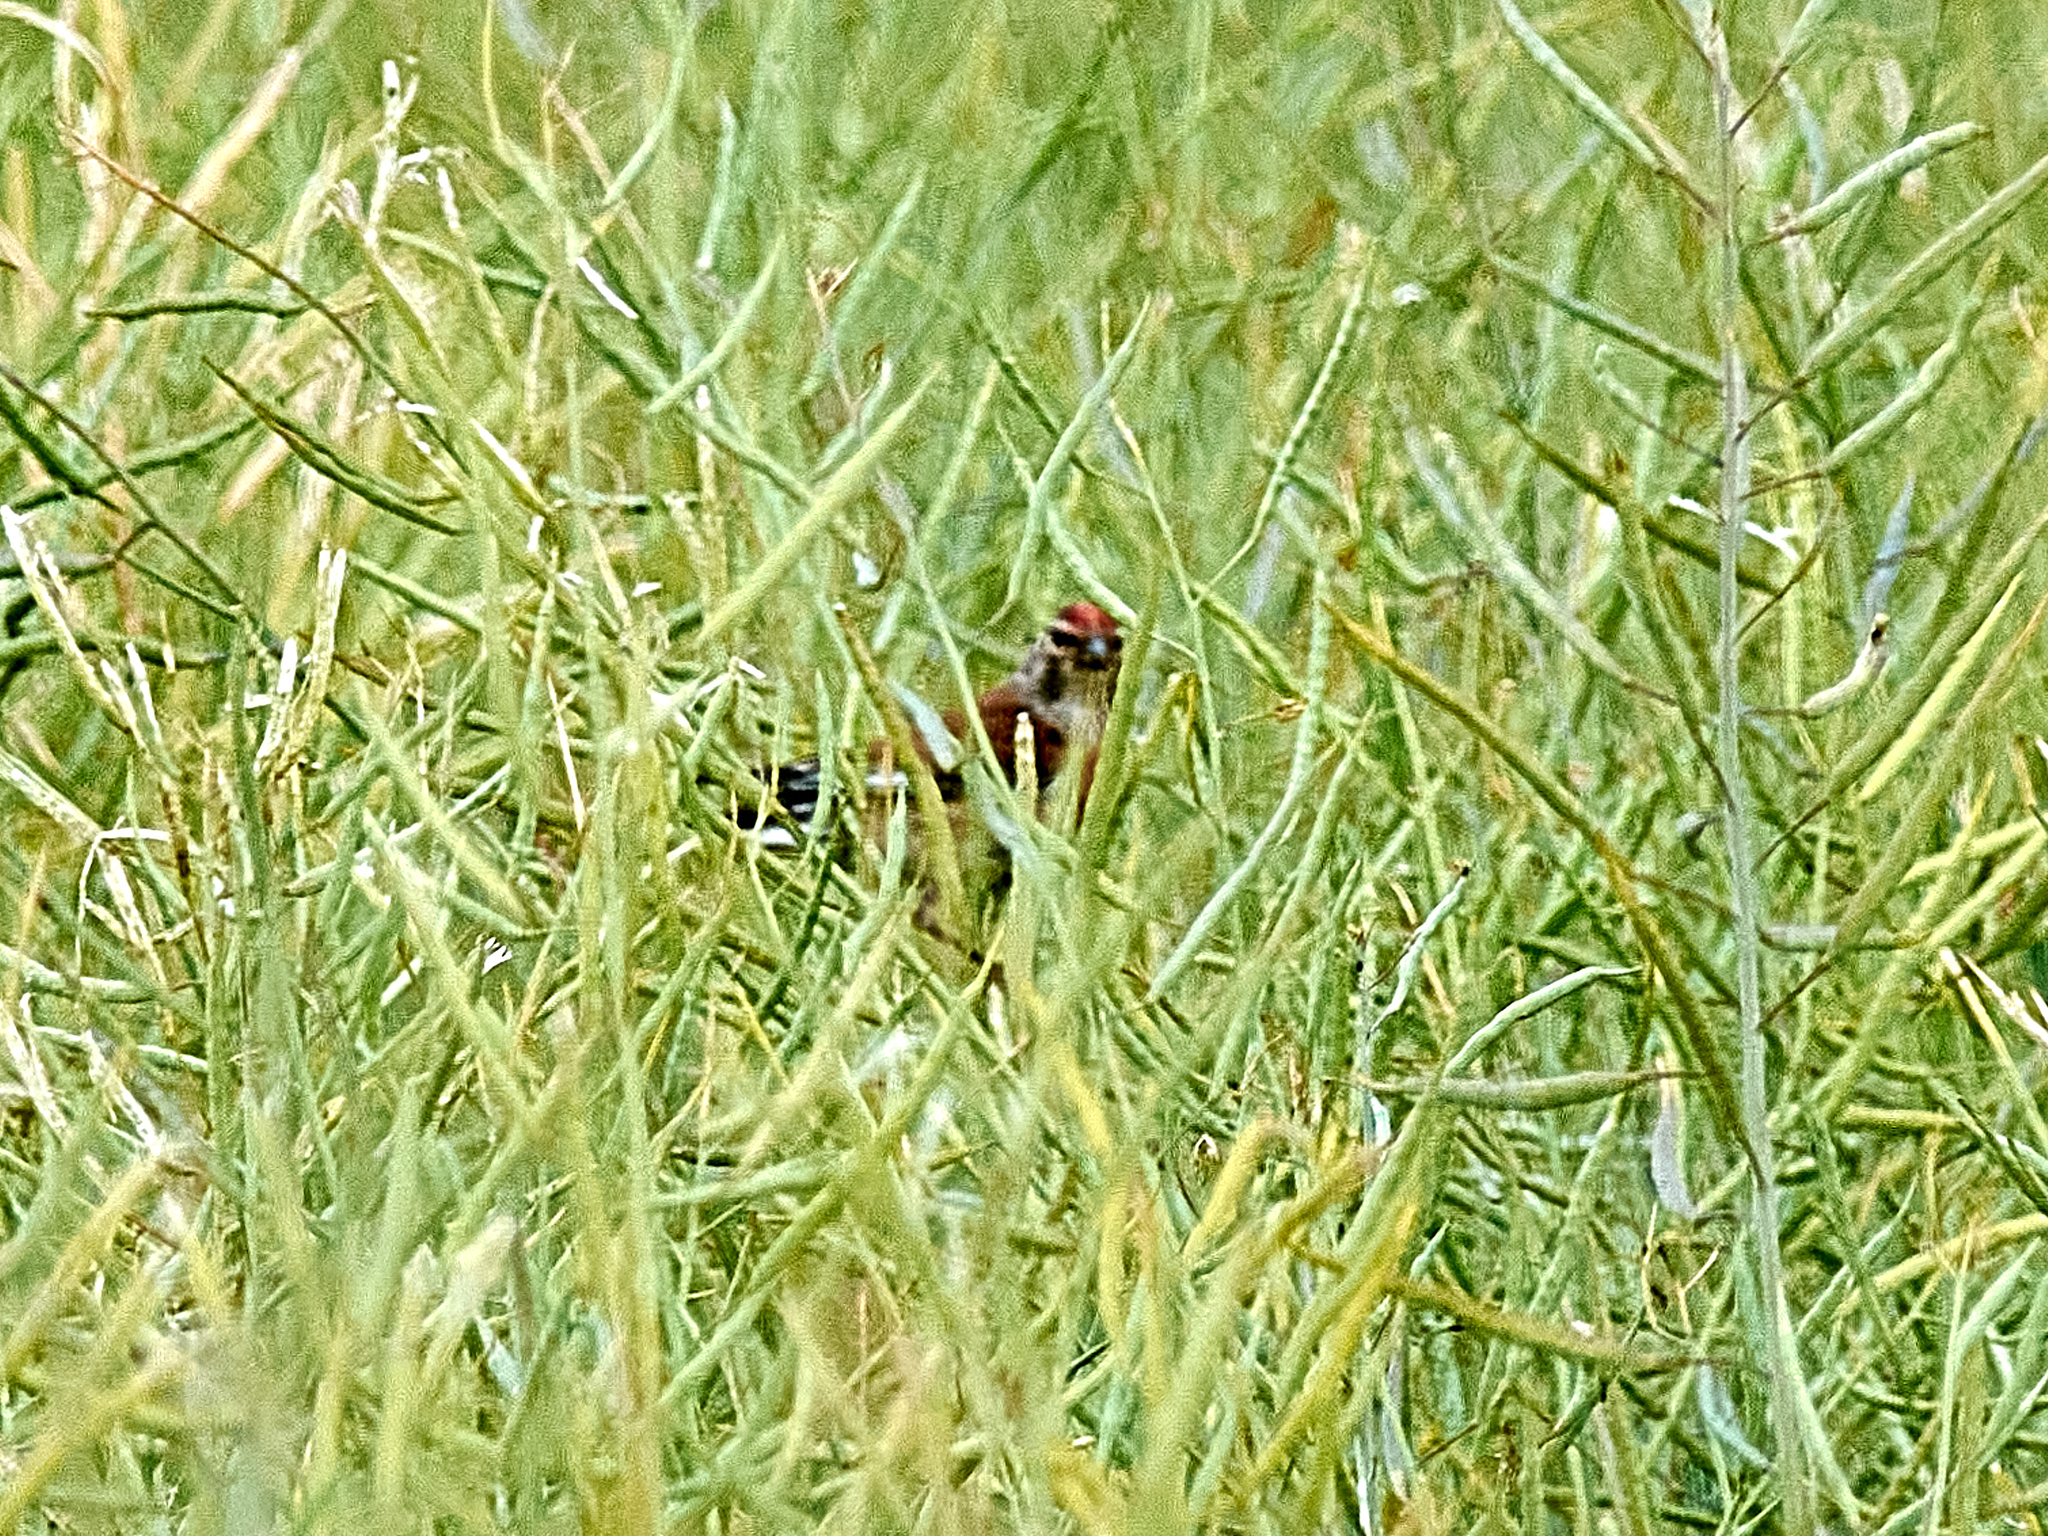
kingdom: Animalia
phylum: Chordata
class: Aves
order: Passeriformes
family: Fringillidae
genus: Linaria
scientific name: Linaria cannabina
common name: Common linnet
